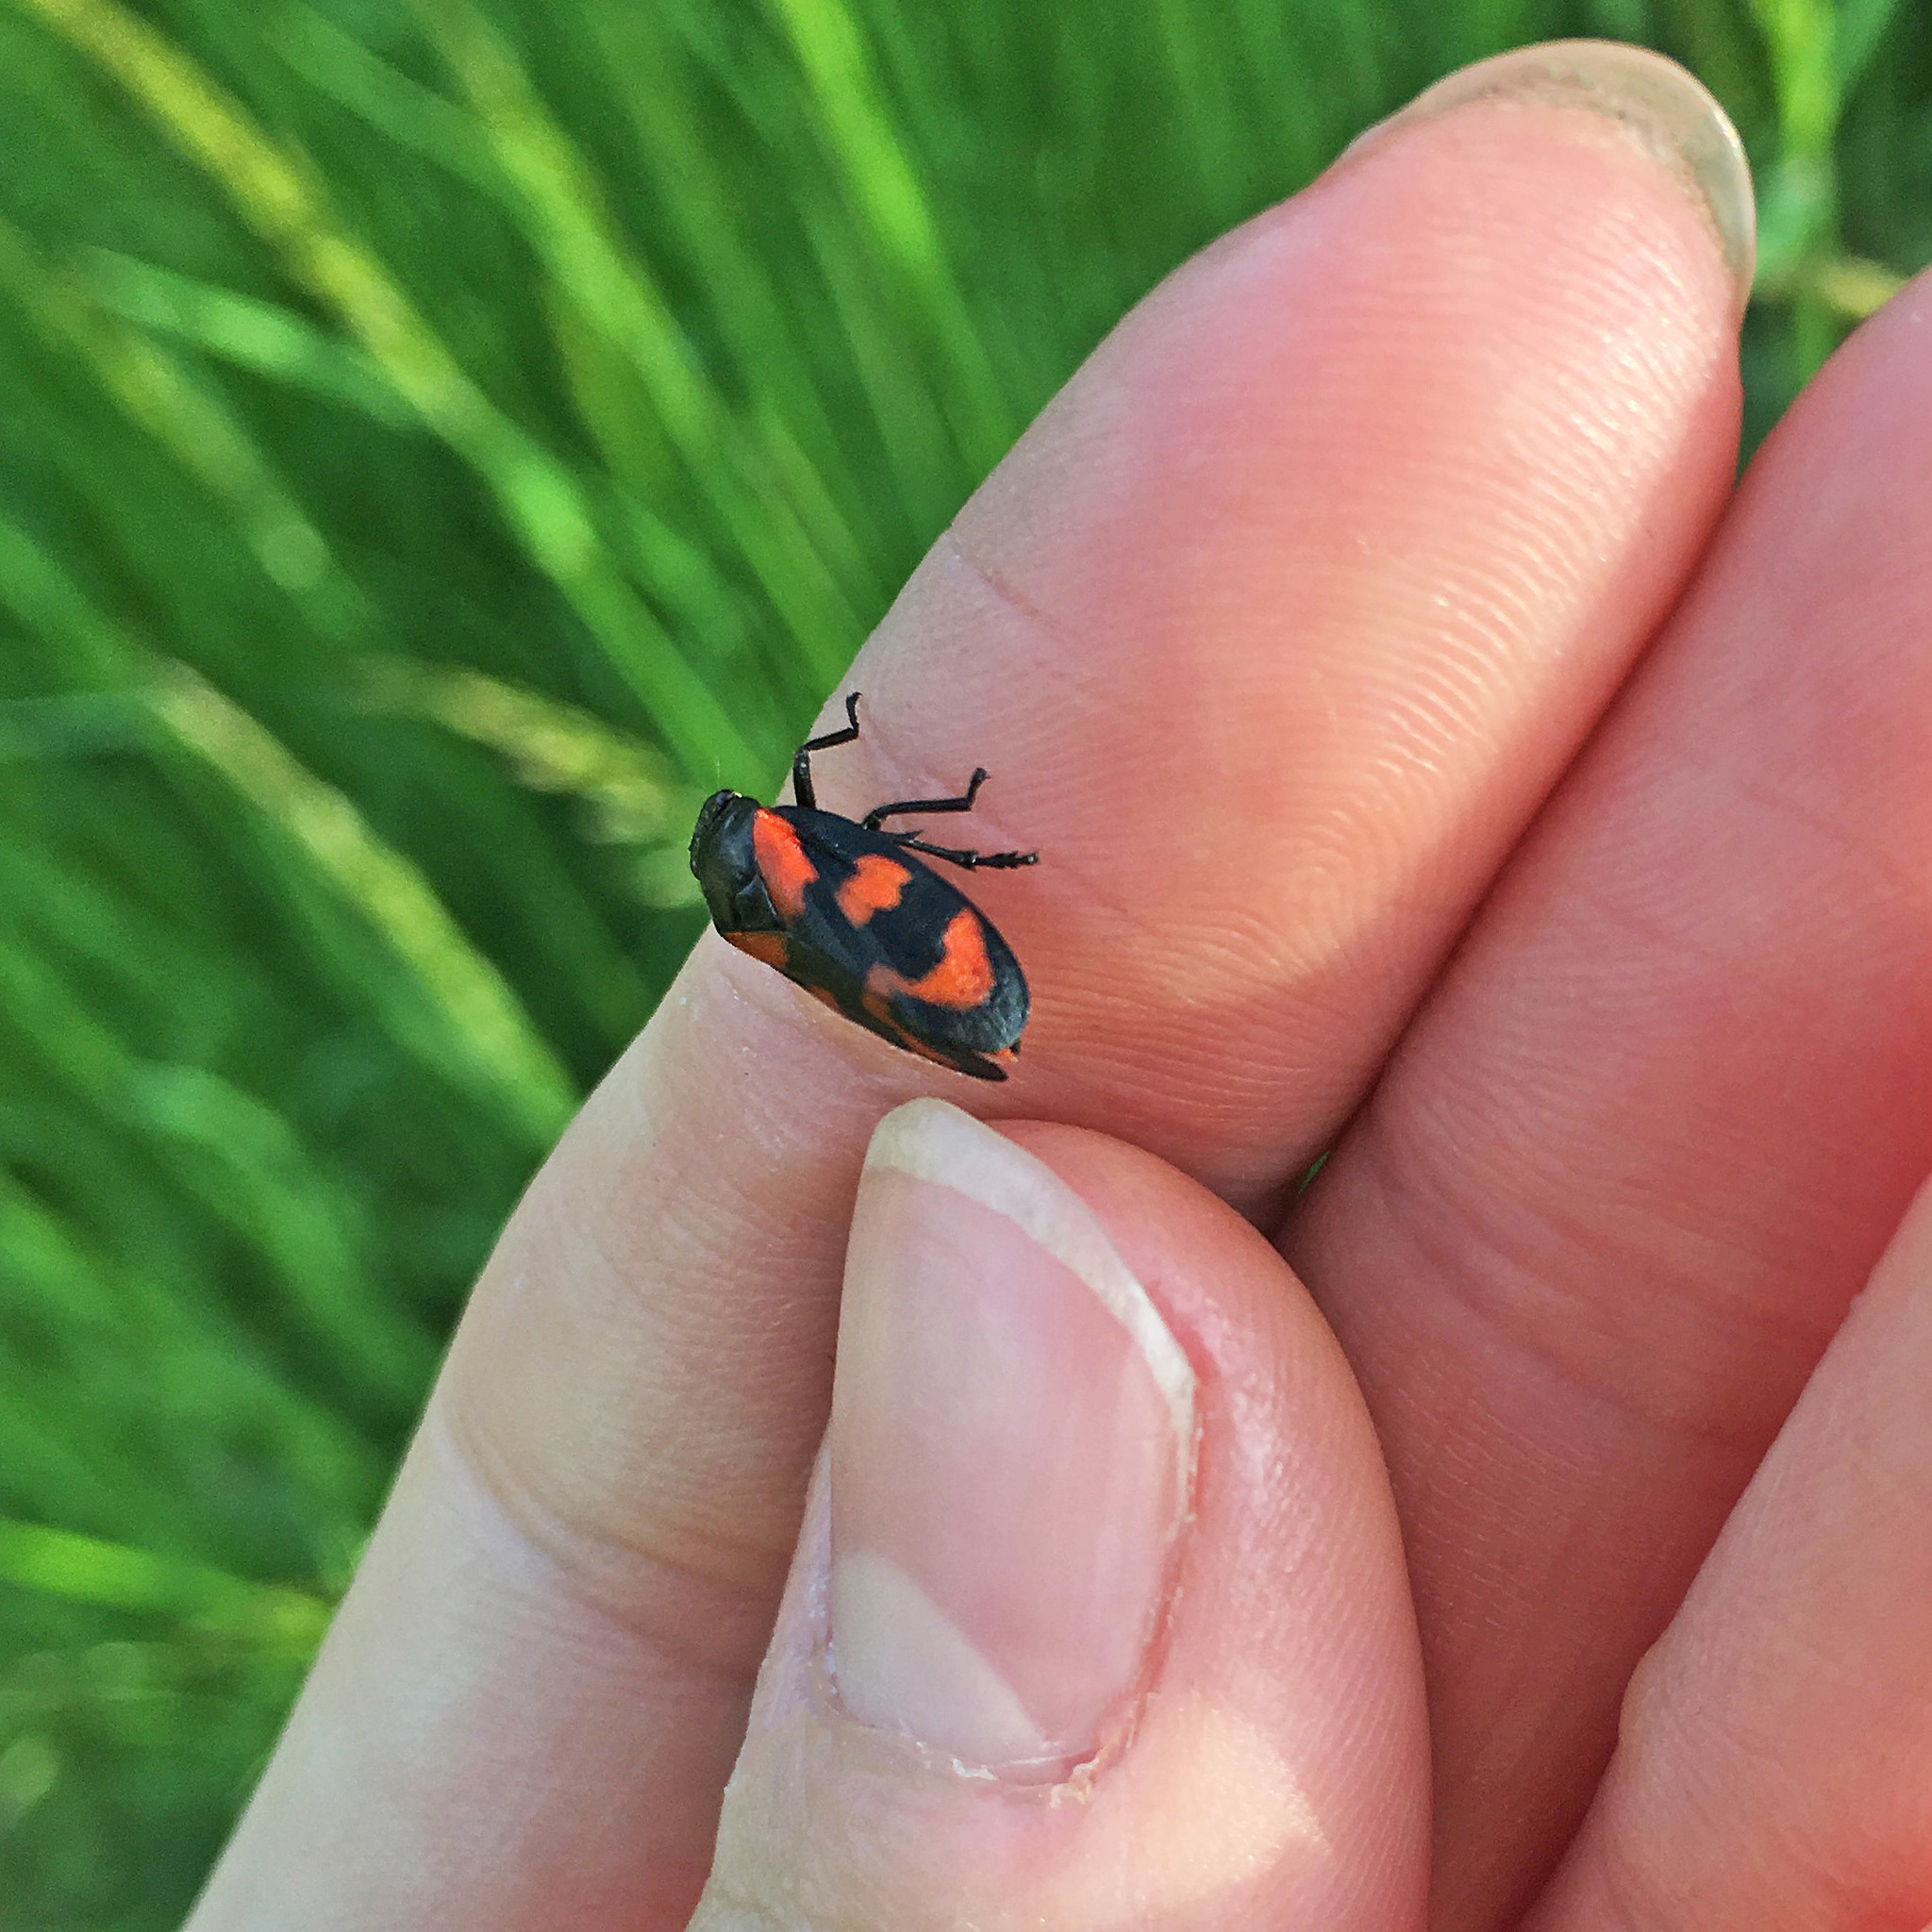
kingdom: Animalia
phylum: Arthropoda
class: Insecta
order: Hemiptera
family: Cercopidae
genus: Cercopis
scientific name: Cercopis vulnerata
